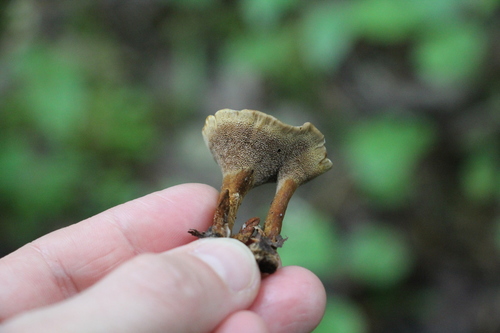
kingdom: Fungi
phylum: Basidiomycota
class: Agaricomycetes
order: Hymenochaetales
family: Hymenochaetaceae
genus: Coltricia
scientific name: Coltricia perennis
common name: Tiger's eye
